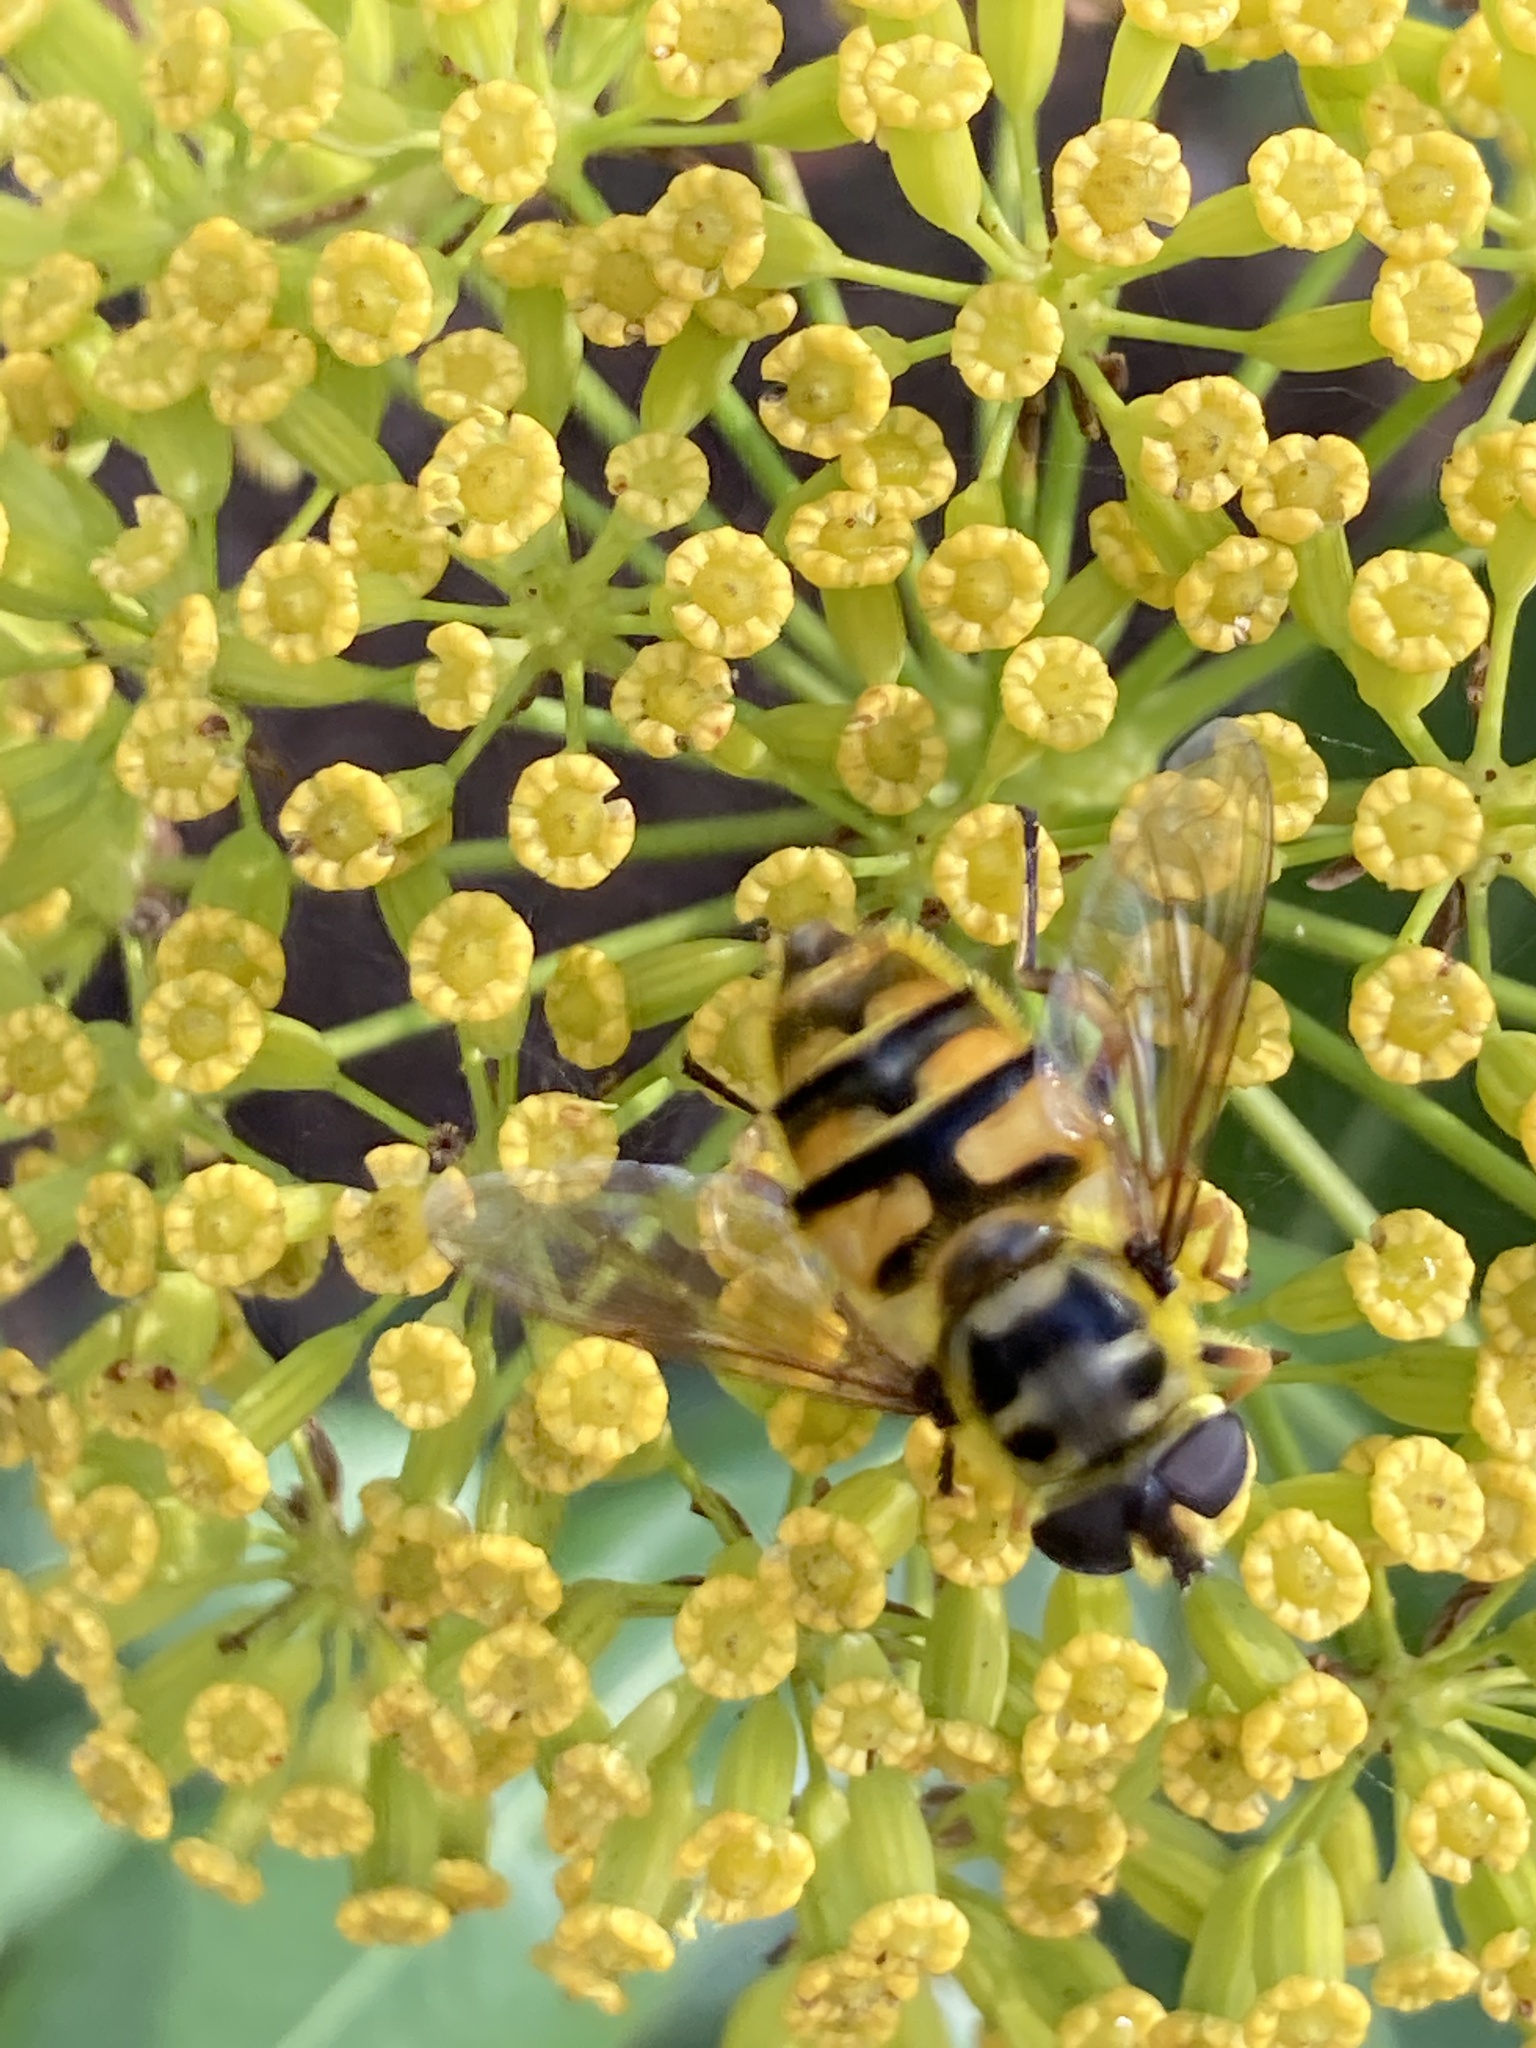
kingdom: Animalia
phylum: Arthropoda
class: Insecta
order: Diptera
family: Syrphidae
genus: Myathropa
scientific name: Myathropa florea
